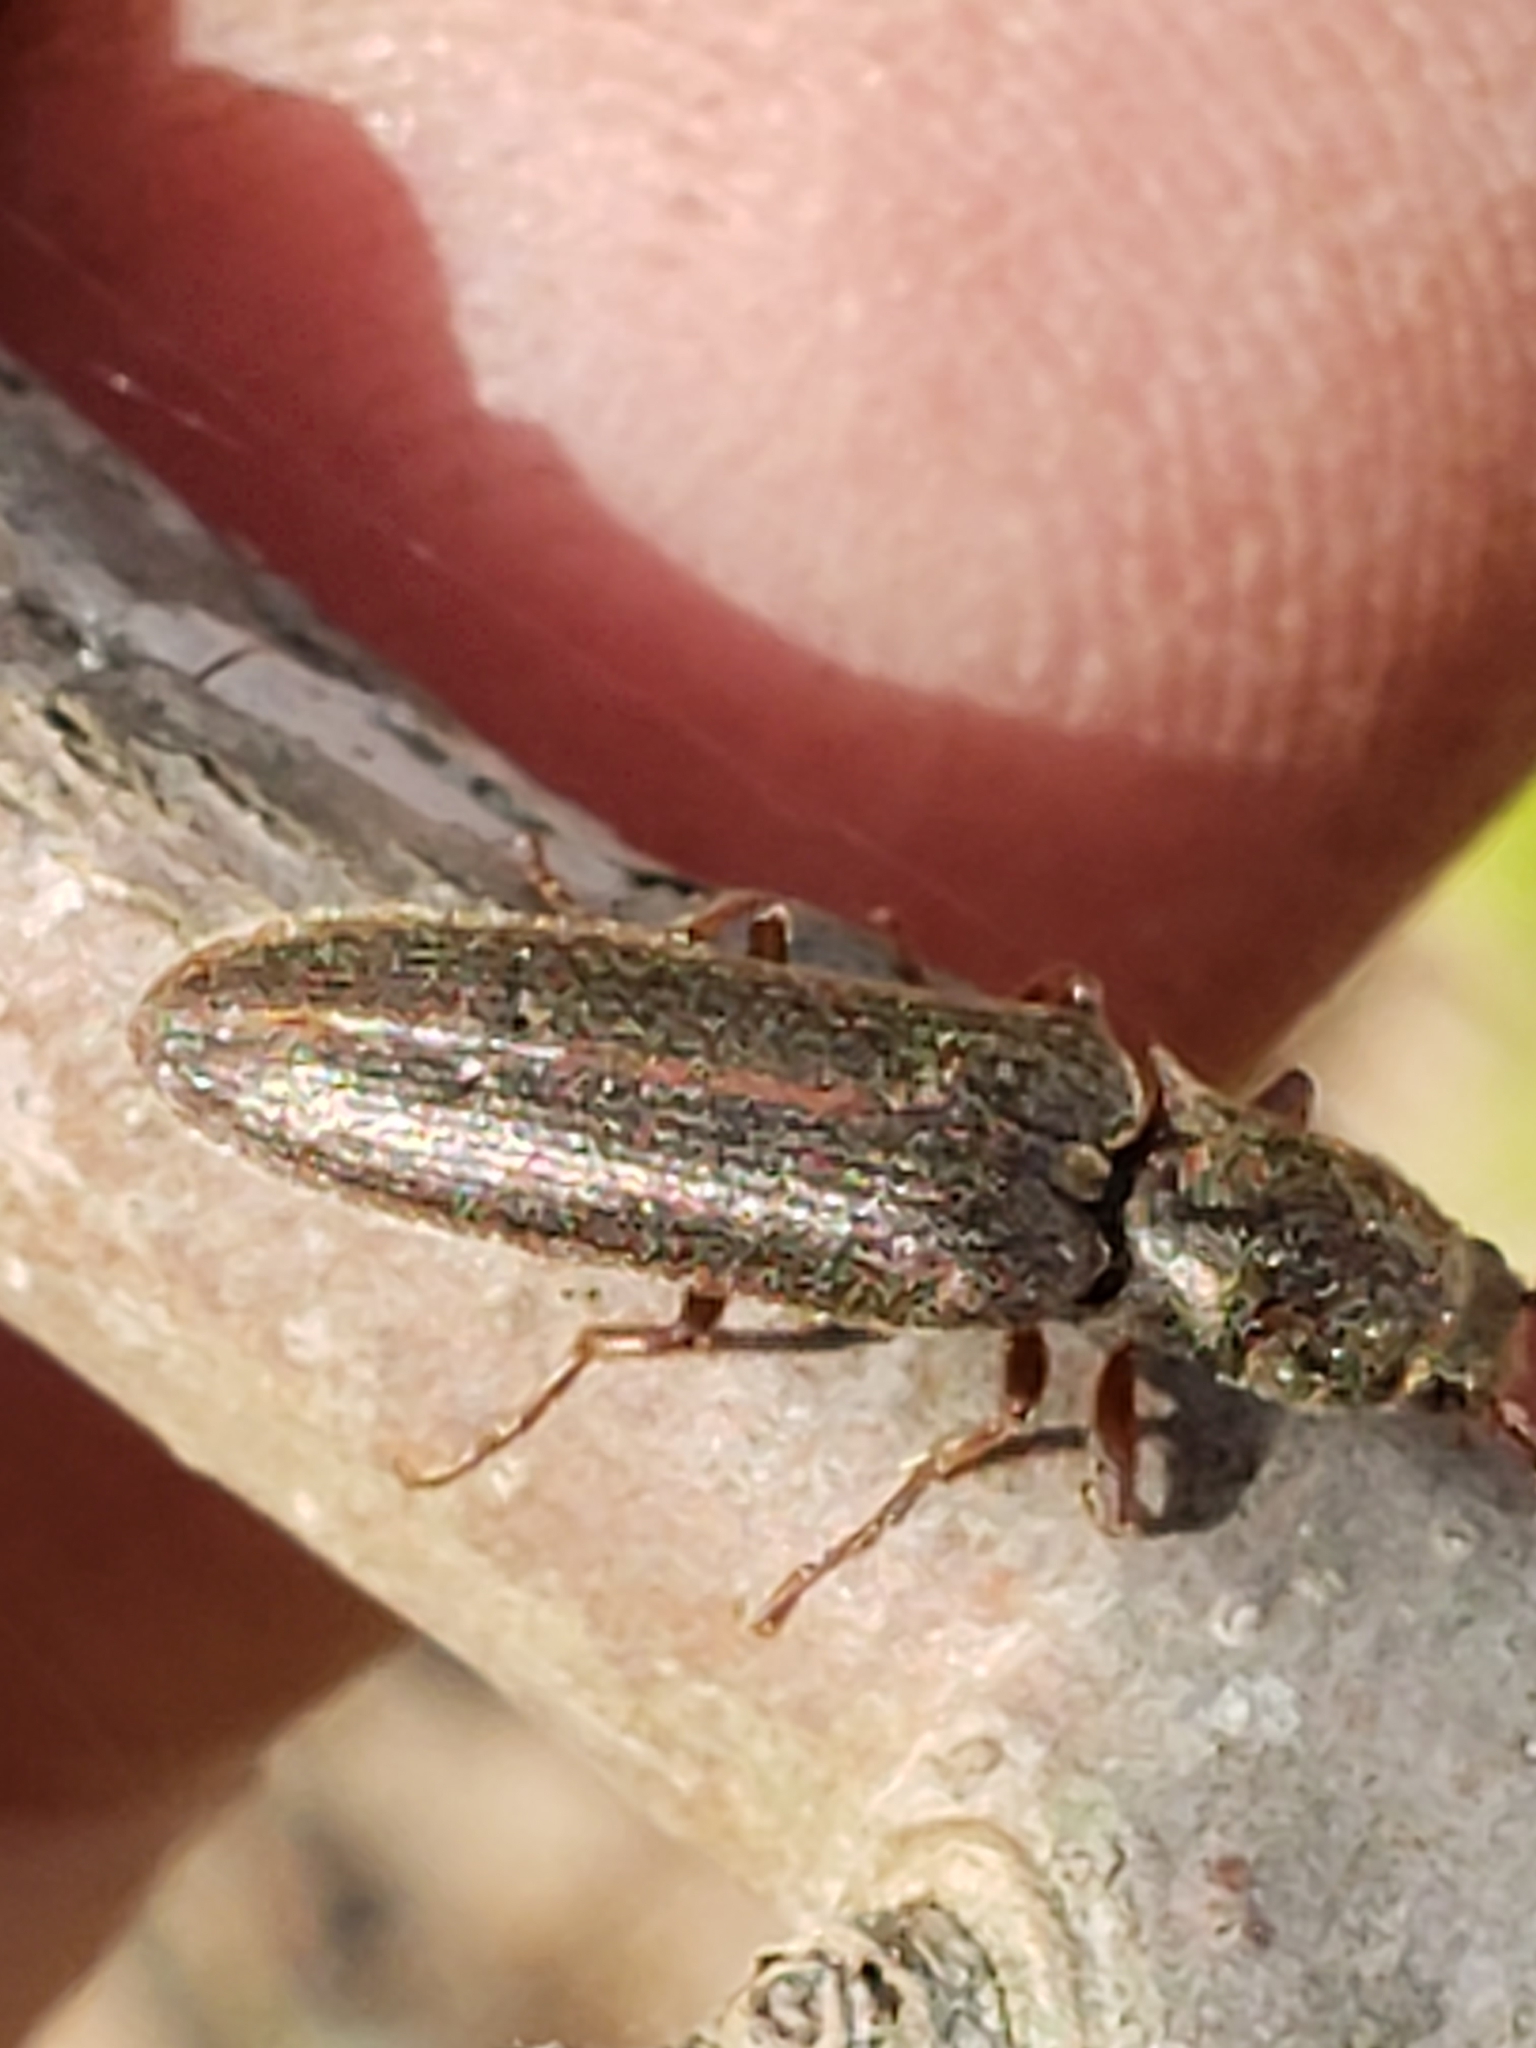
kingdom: Animalia
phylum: Arthropoda
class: Insecta
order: Coleoptera
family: Elateridae
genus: Sylvanelater
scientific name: Sylvanelater cylindriformis
